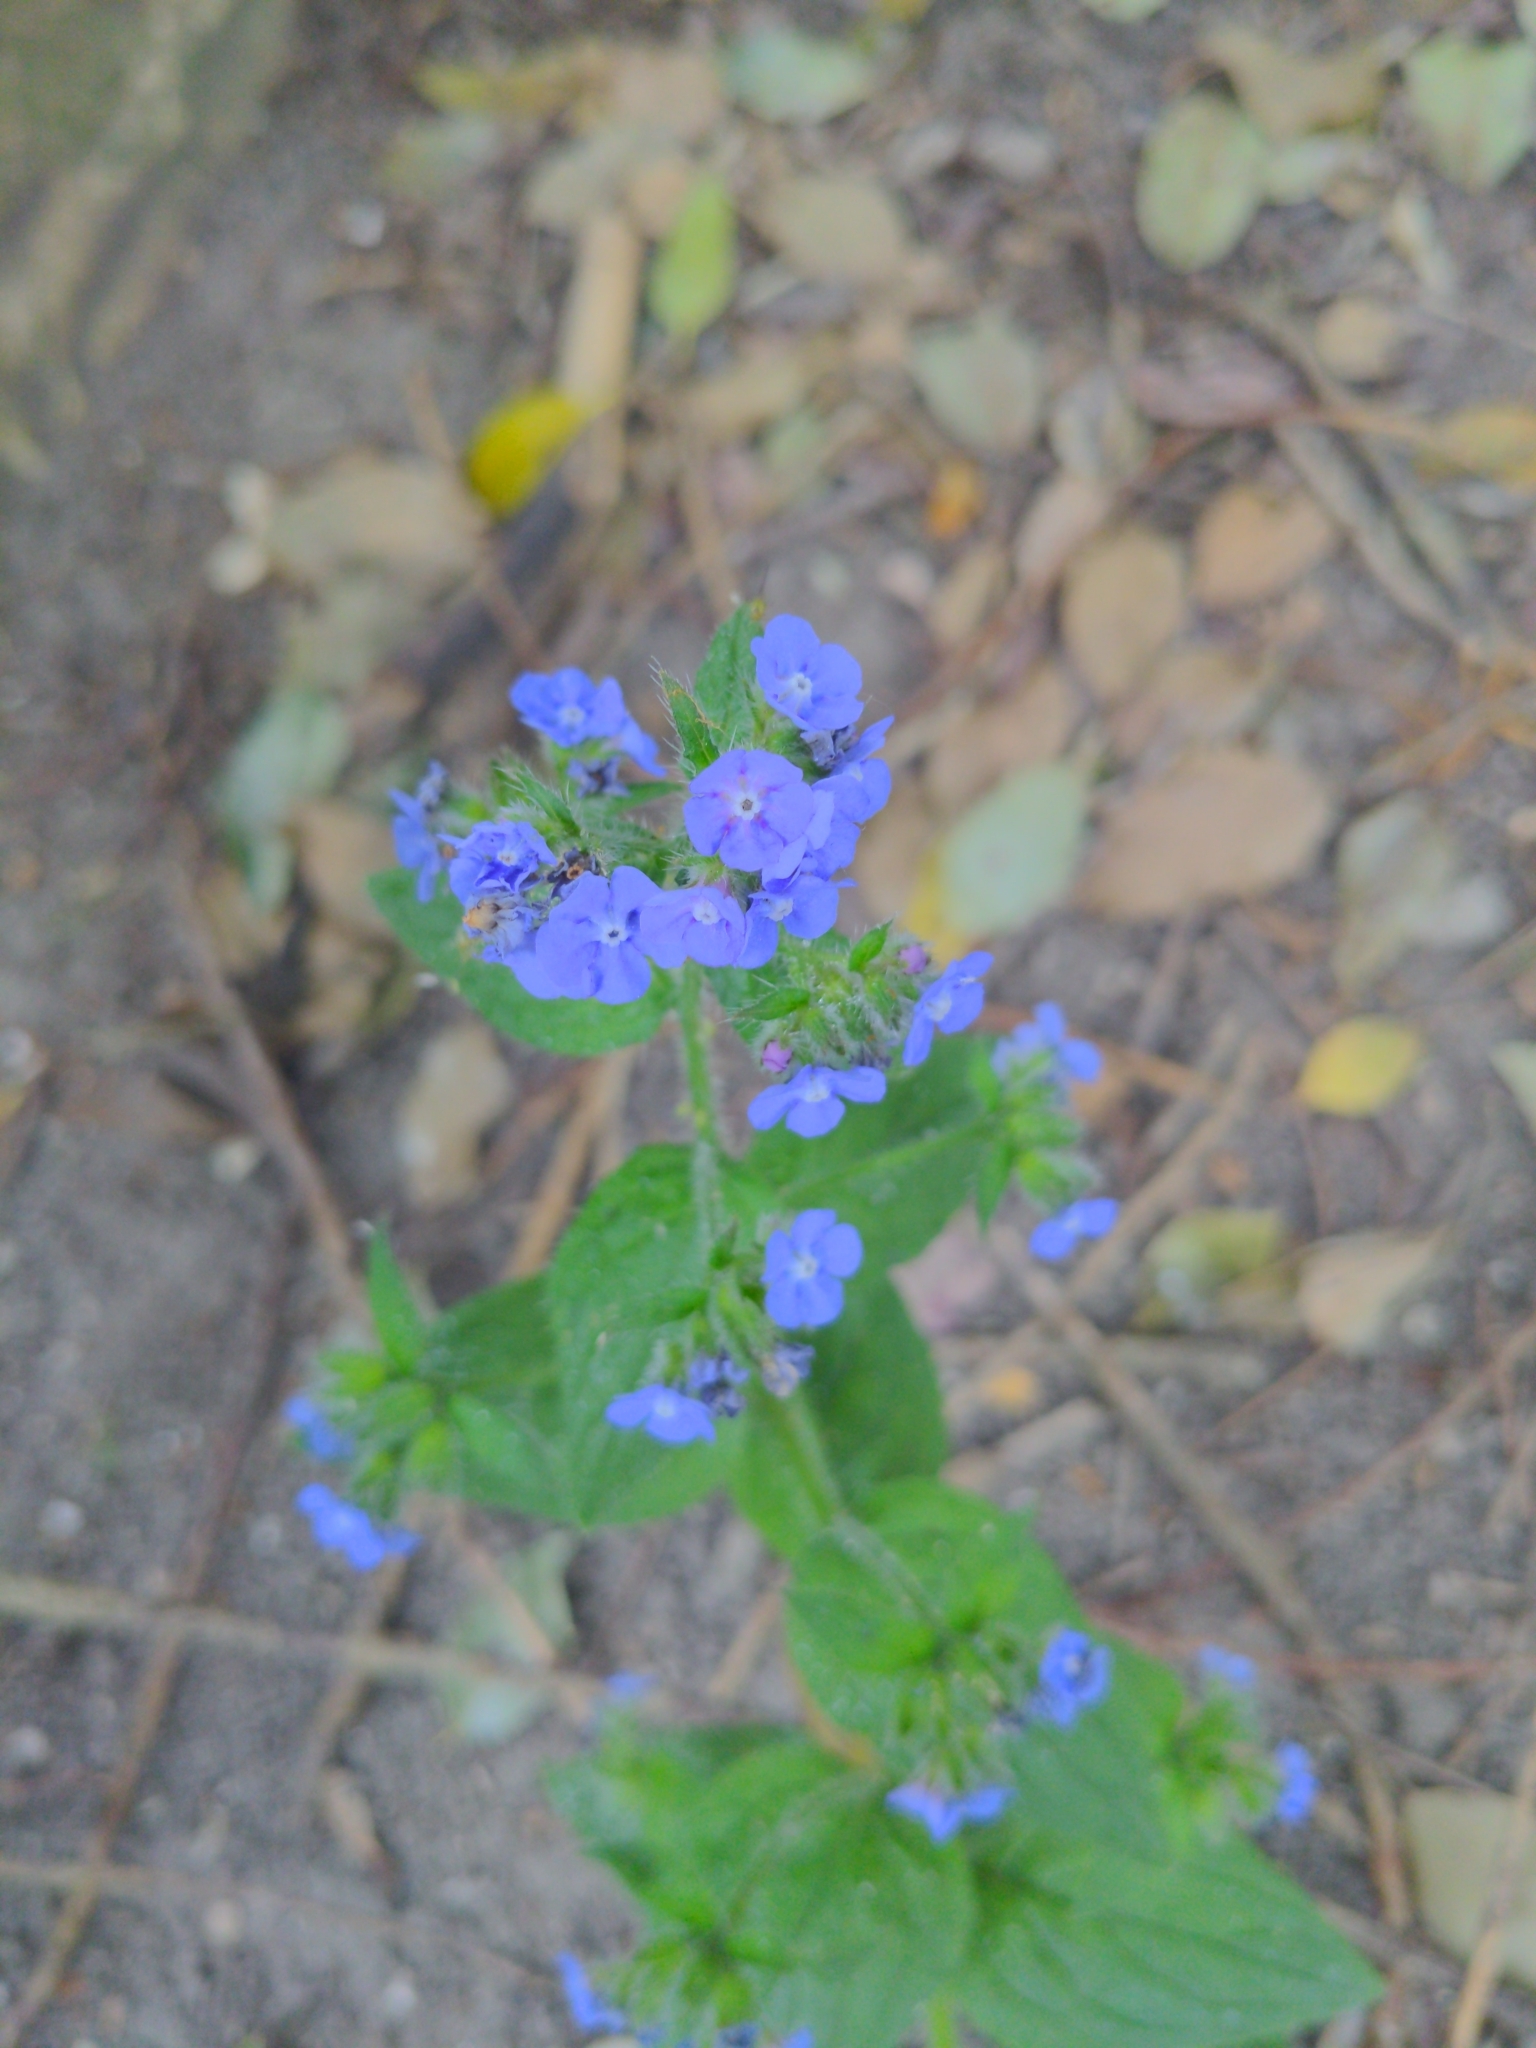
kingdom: Plantae
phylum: Tracheophyta
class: Magnoliopsida
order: Boraginales
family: Boraginaceae
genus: Pentaglottis
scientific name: Pentaglottis sempervirens
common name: Green alkanet
